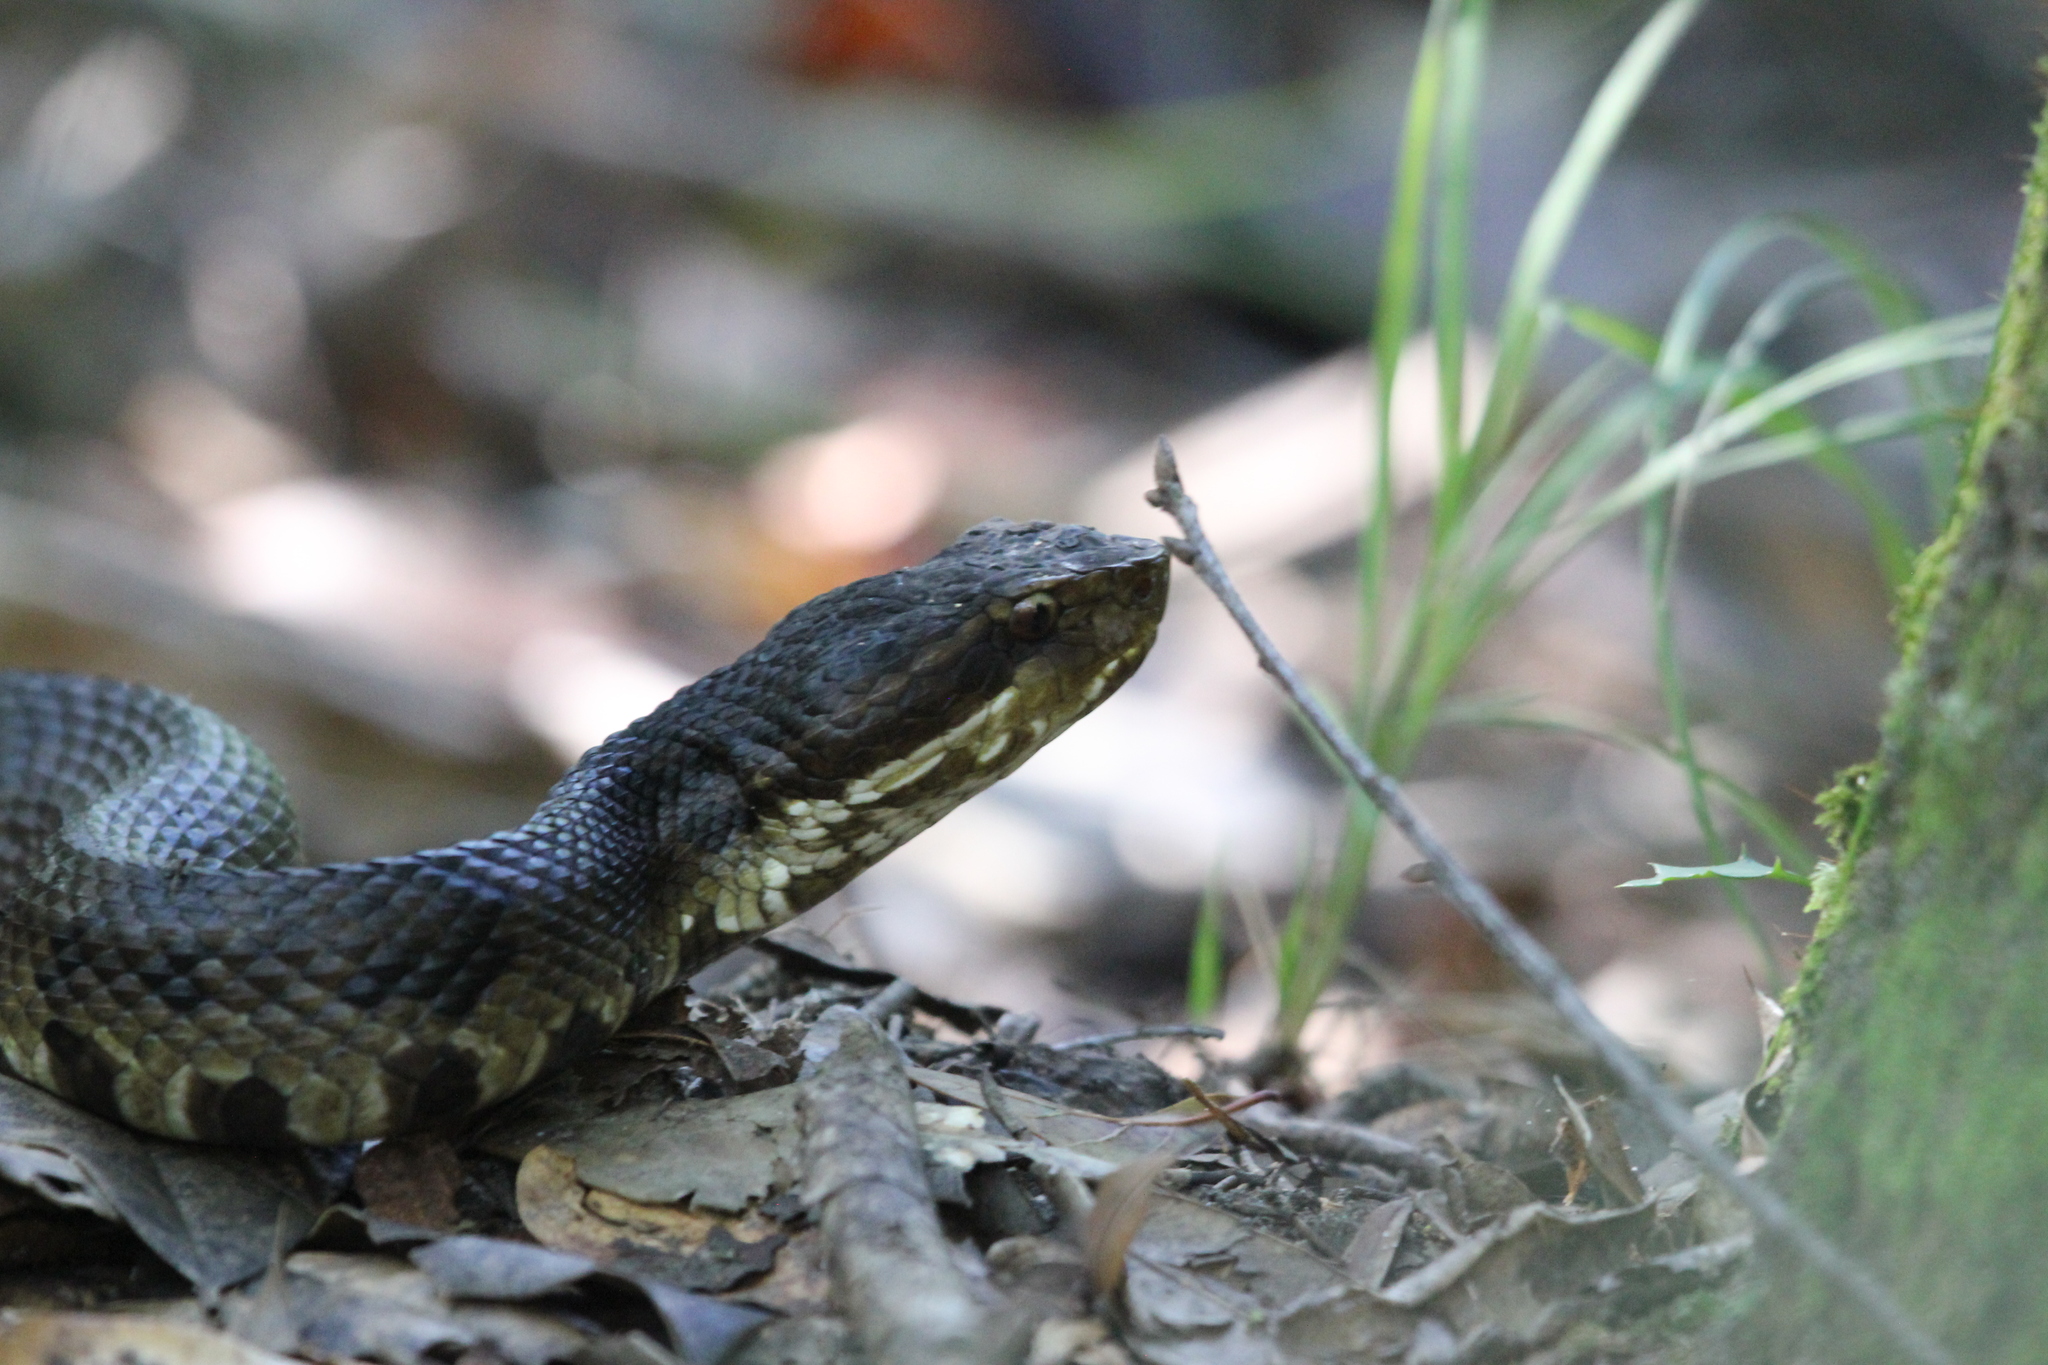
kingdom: Animalia
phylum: Chordata
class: Squamata
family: Viperidae
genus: Agkistrodon
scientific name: Agkistrodon piscivorus
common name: Cottonmouth
